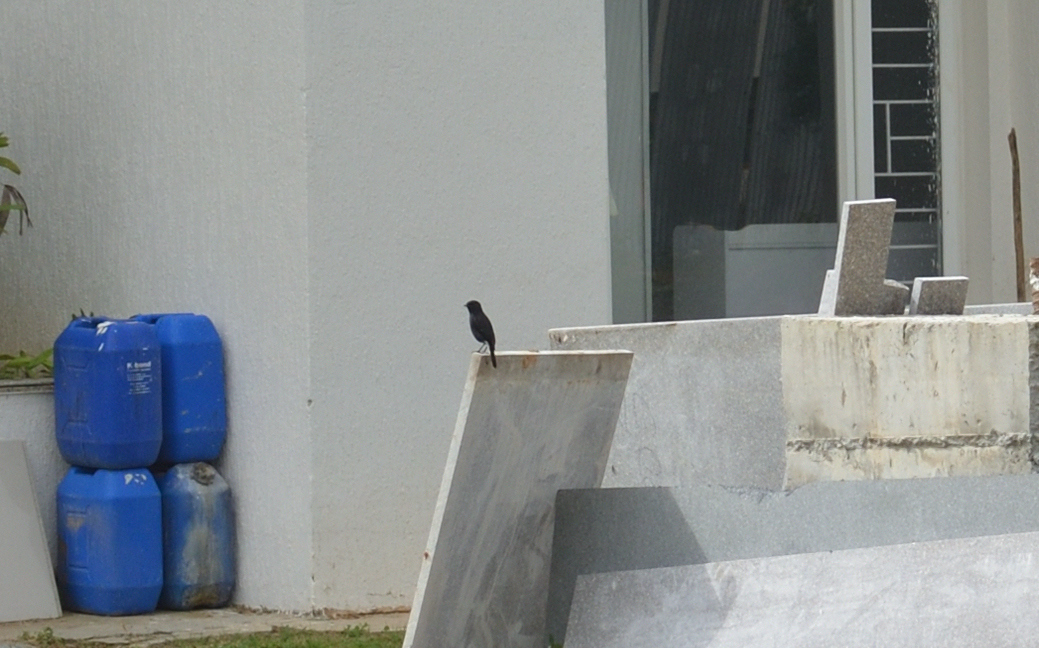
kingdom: Animalia
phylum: Chordata
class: Aves
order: Passeriformes
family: Muscicapidae
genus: Saxicola
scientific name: Saxicola caprata
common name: Pied bush chat
